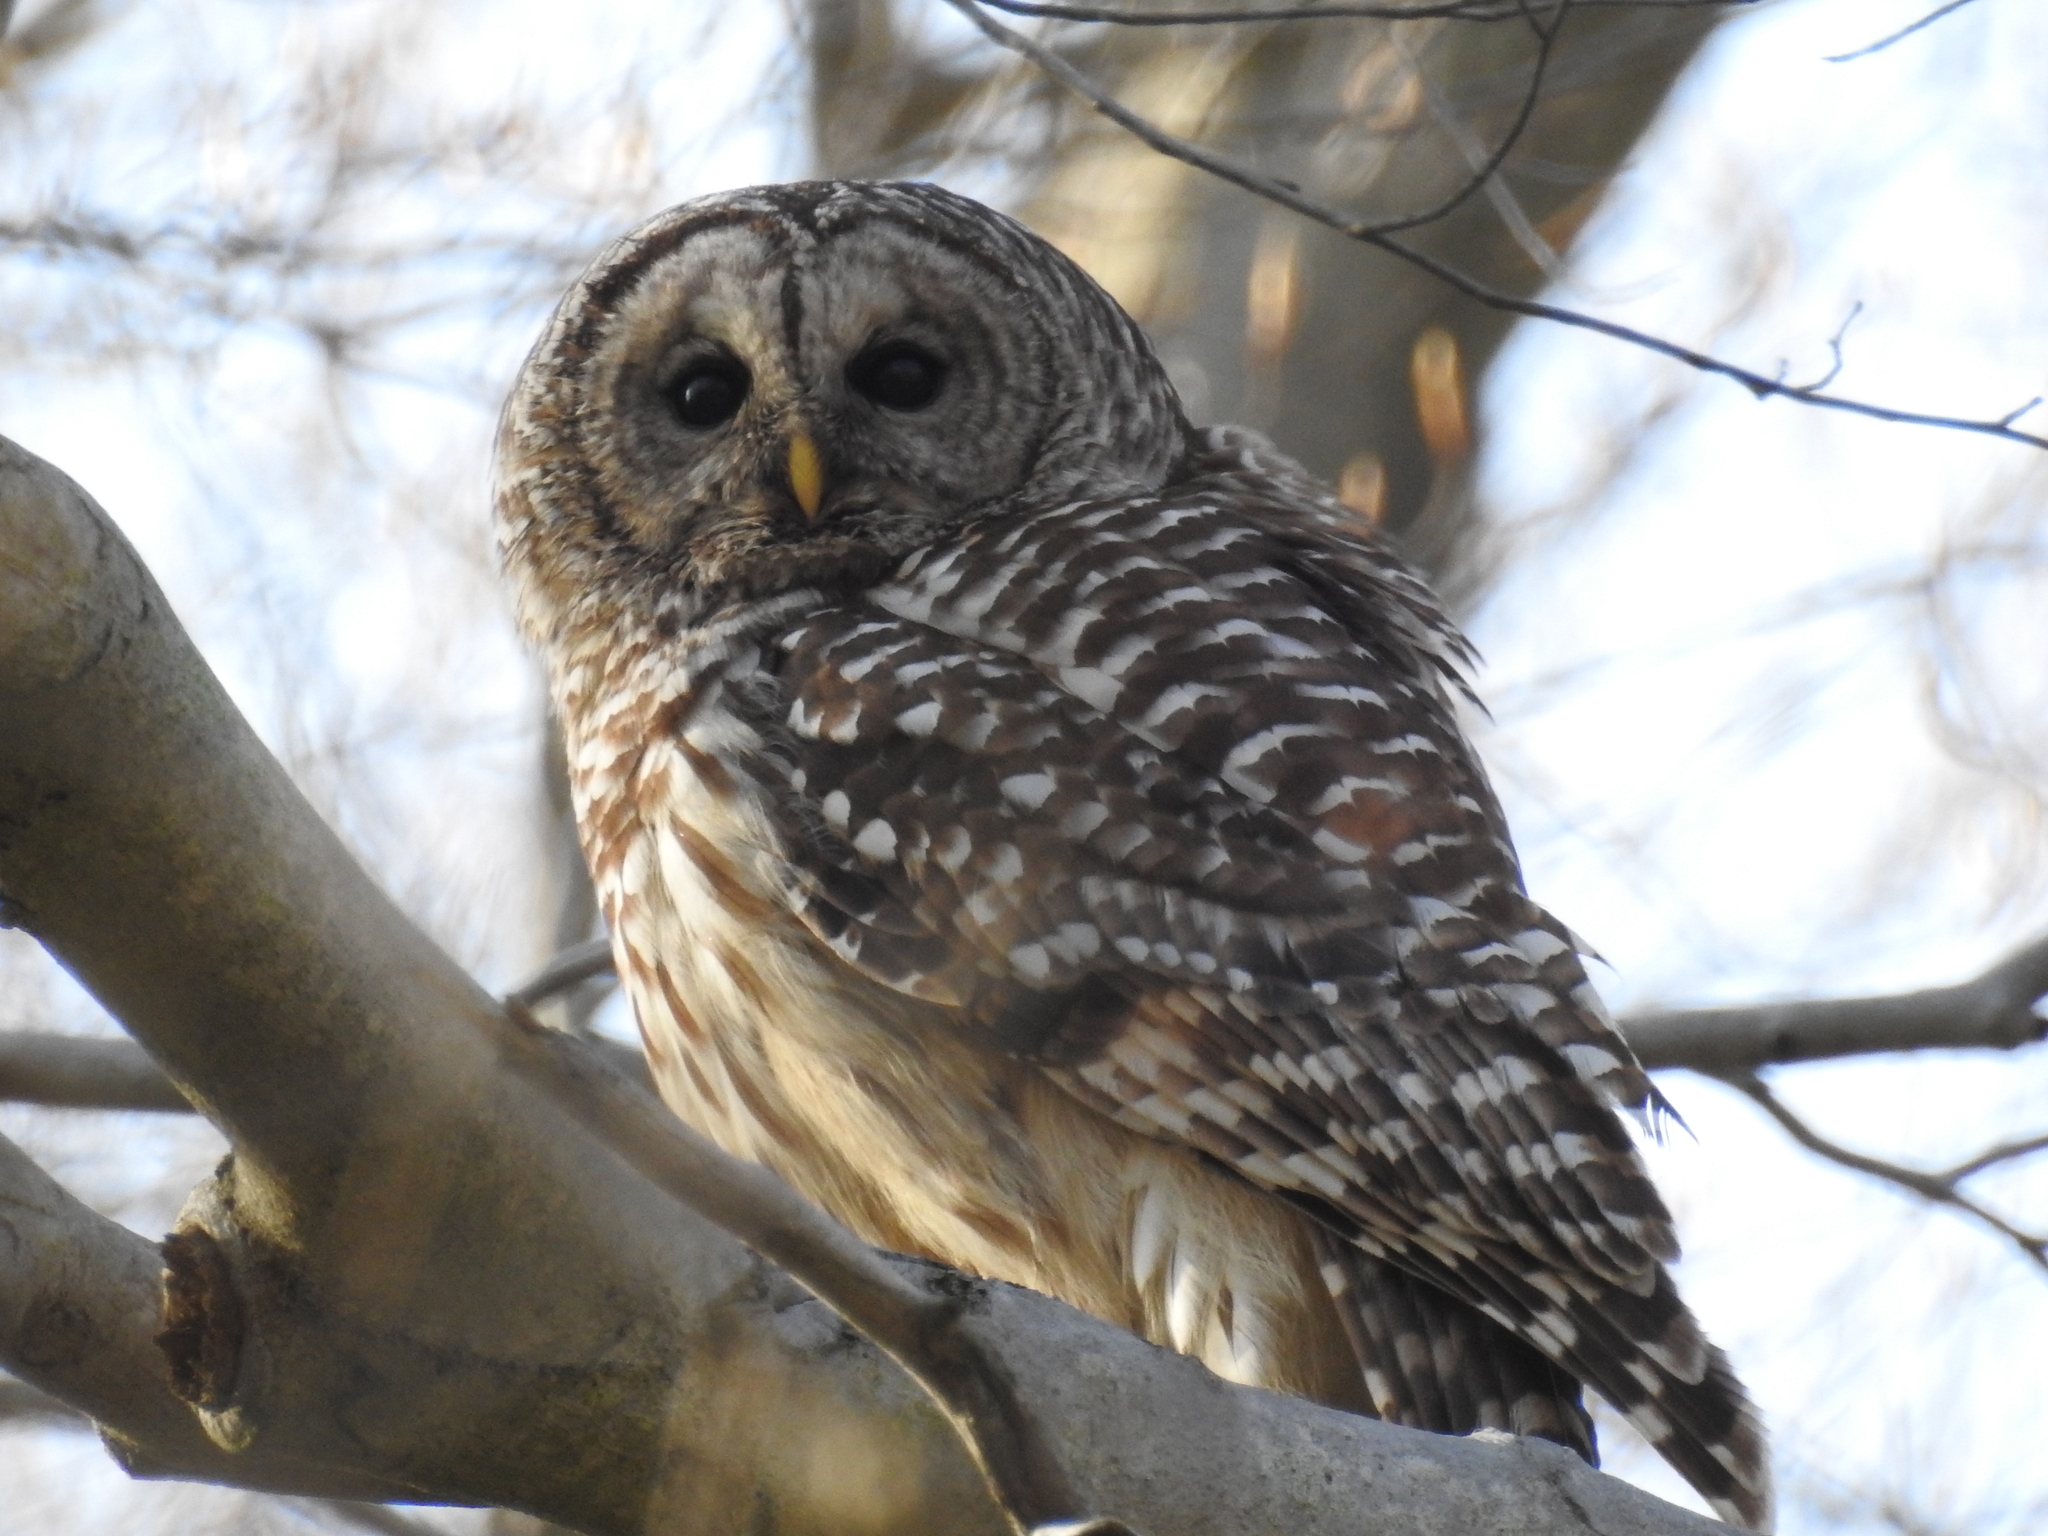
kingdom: Animalia
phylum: Chordata
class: Aves
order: Strigiformes
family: Strigidae
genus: Strix
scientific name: Strix varia
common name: Barred owl
